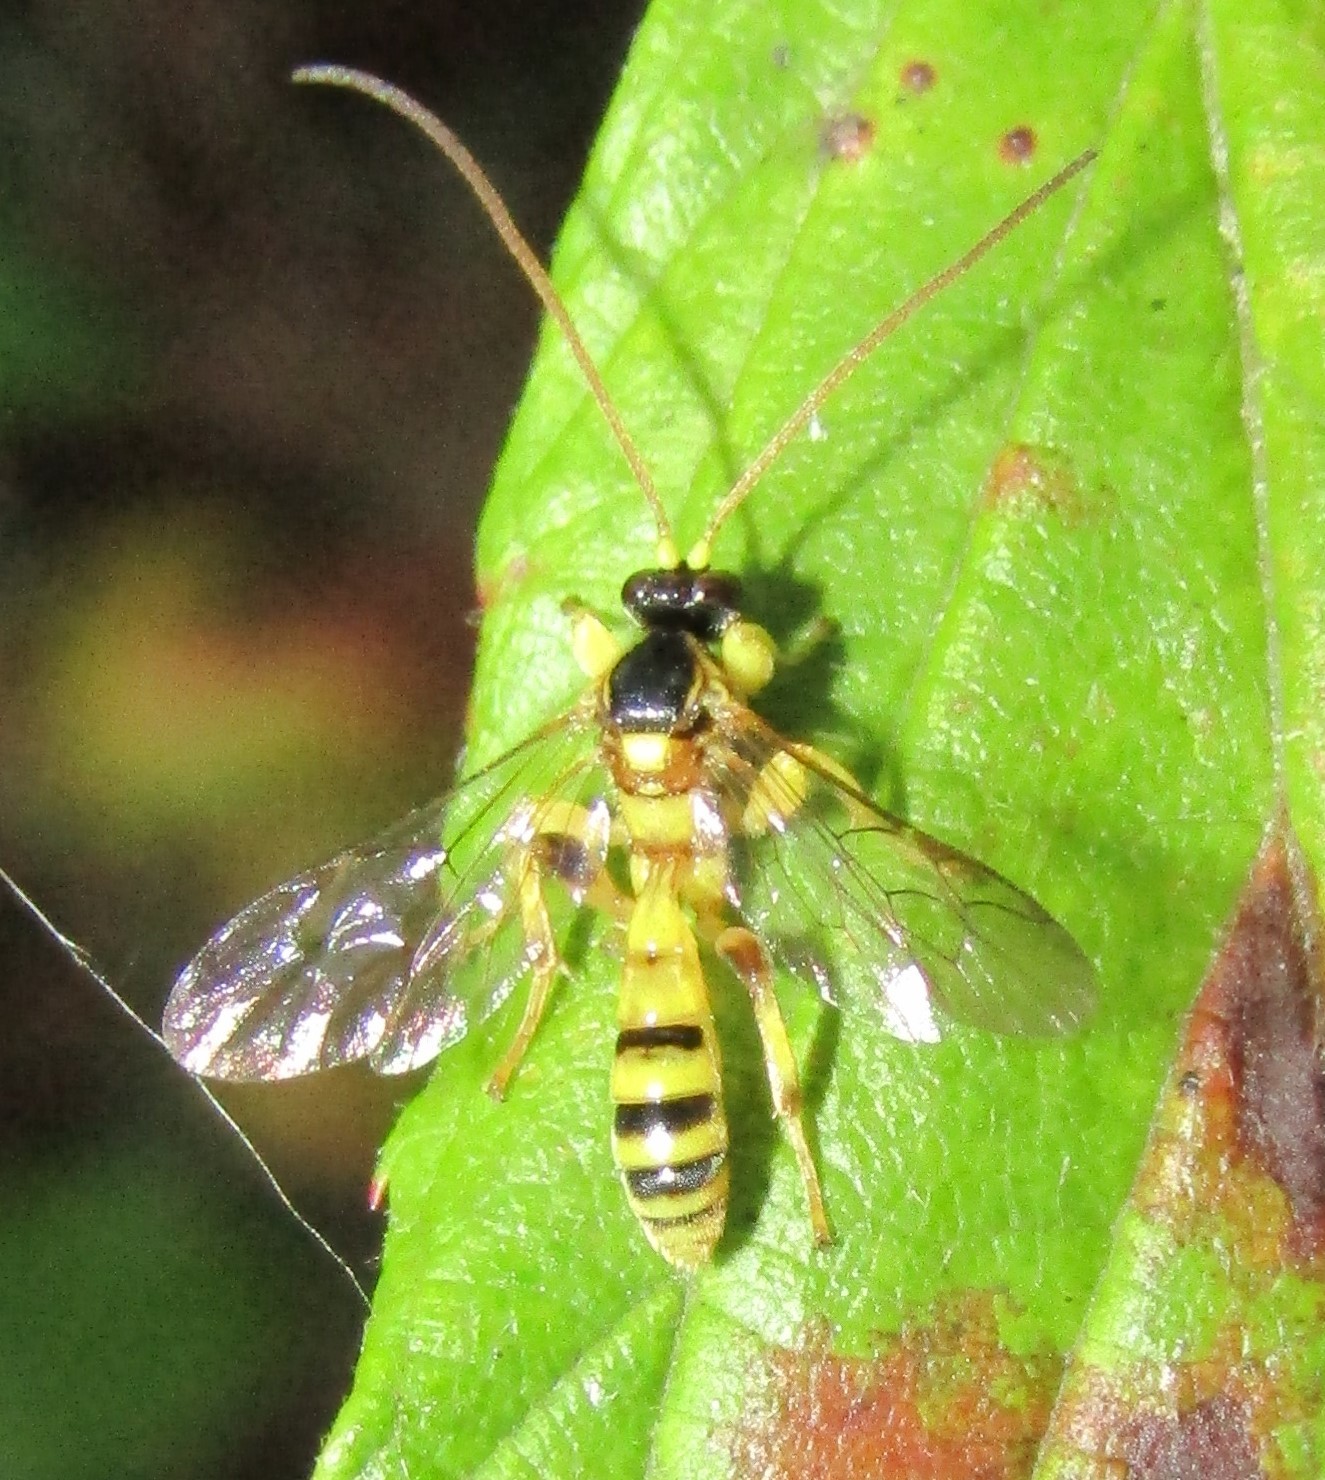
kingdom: Animalia
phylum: Arthropoda
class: Insecta
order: Hymenoptera
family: Ichneumonidae
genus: Colpotrochia
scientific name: Colpotrochia crassipes
